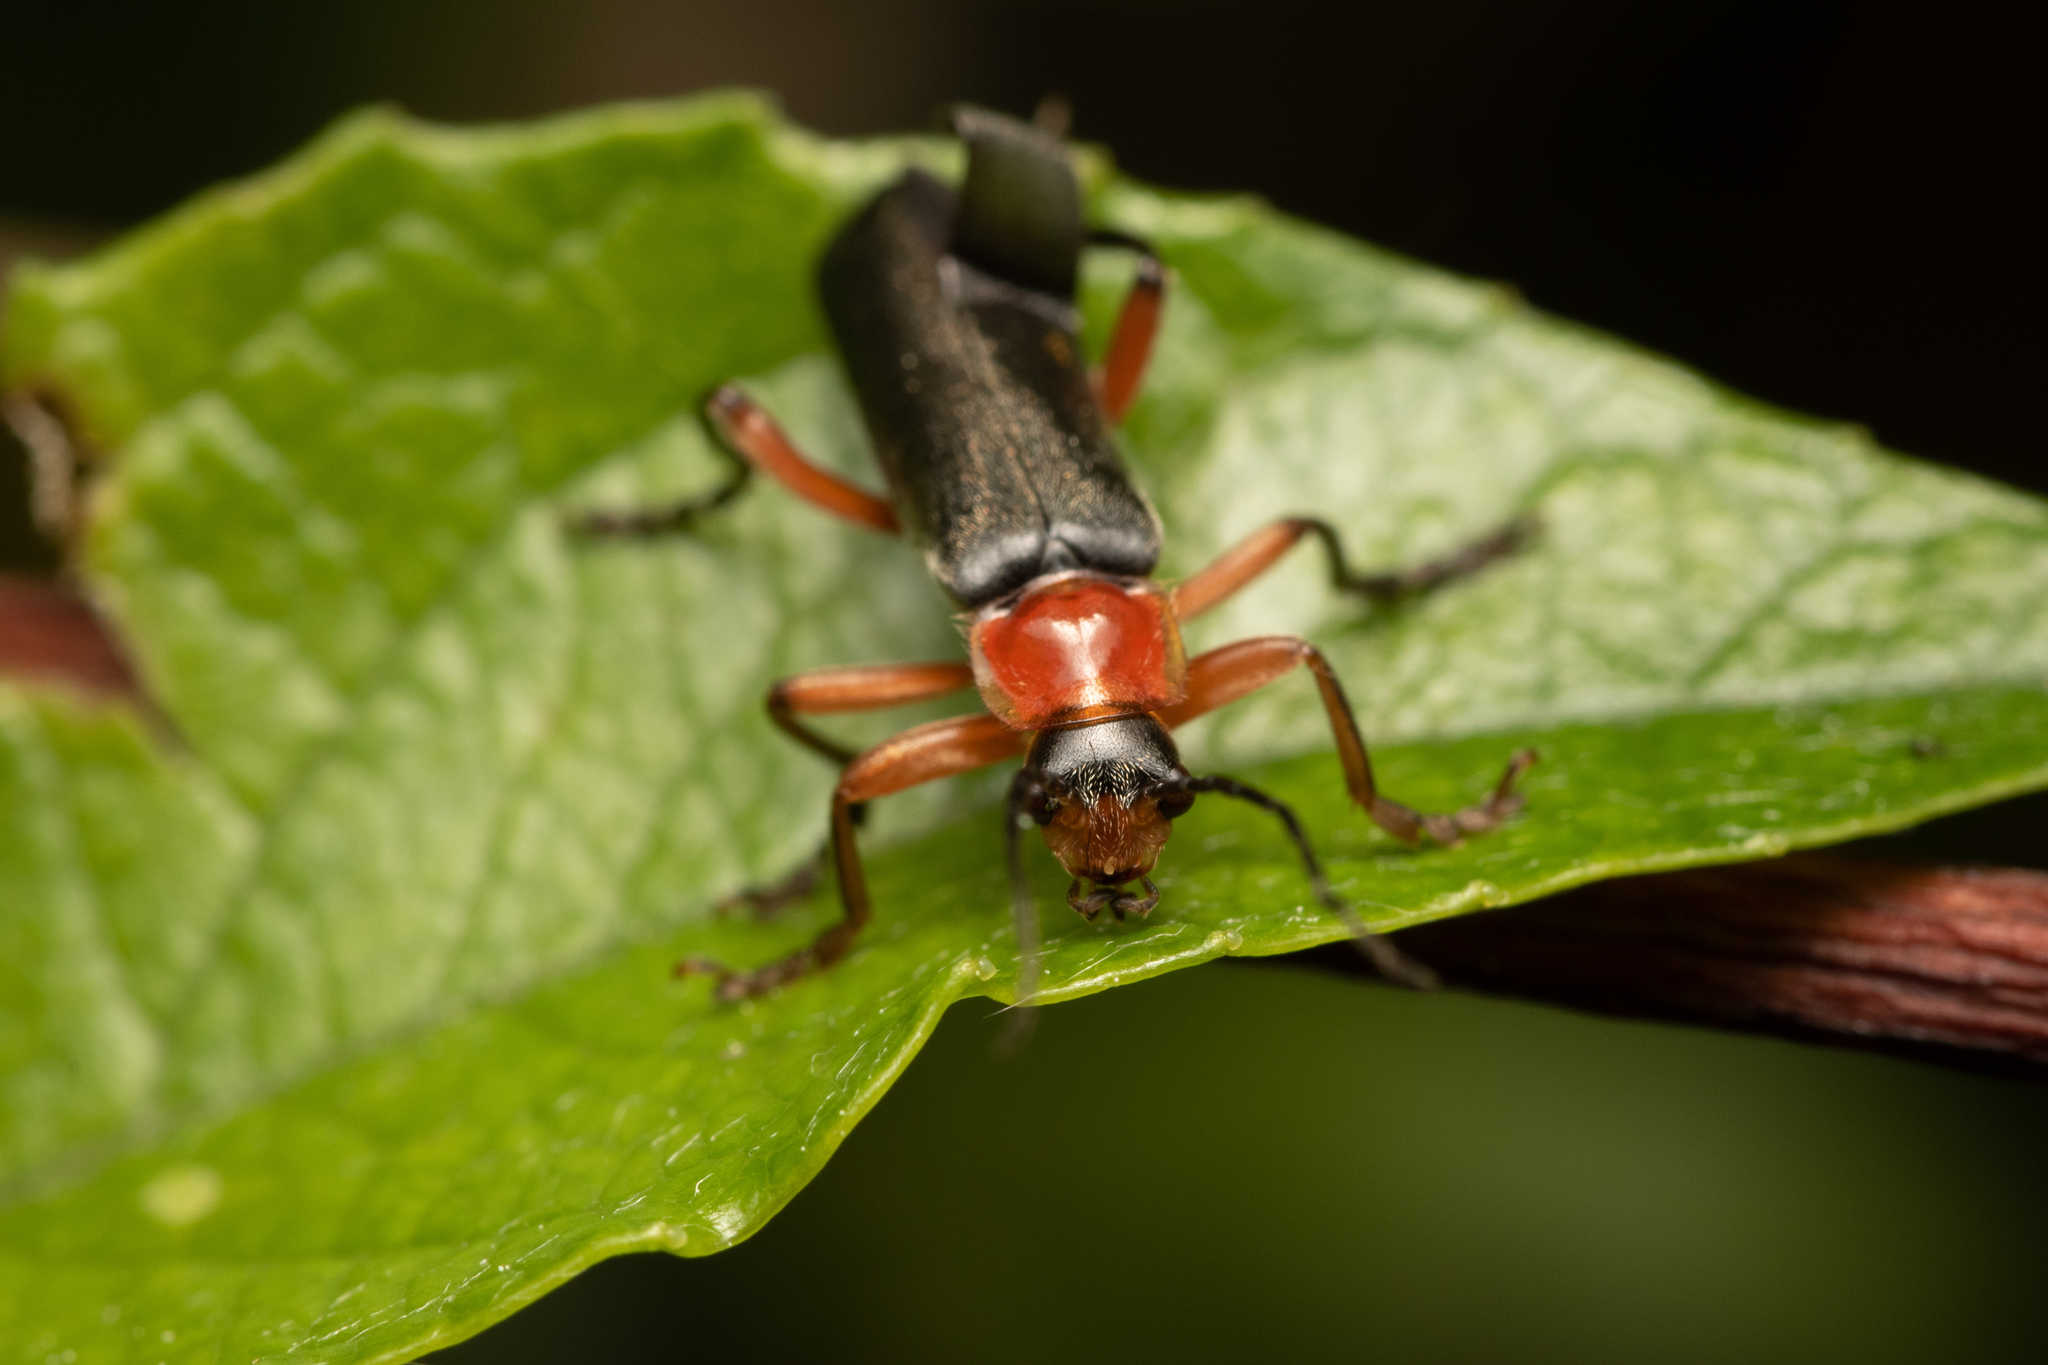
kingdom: Animalia
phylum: Arthropoda
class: Insecta
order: Coleoptera
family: Cantharidae
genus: Cantharis
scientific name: Cantharis pellucida
